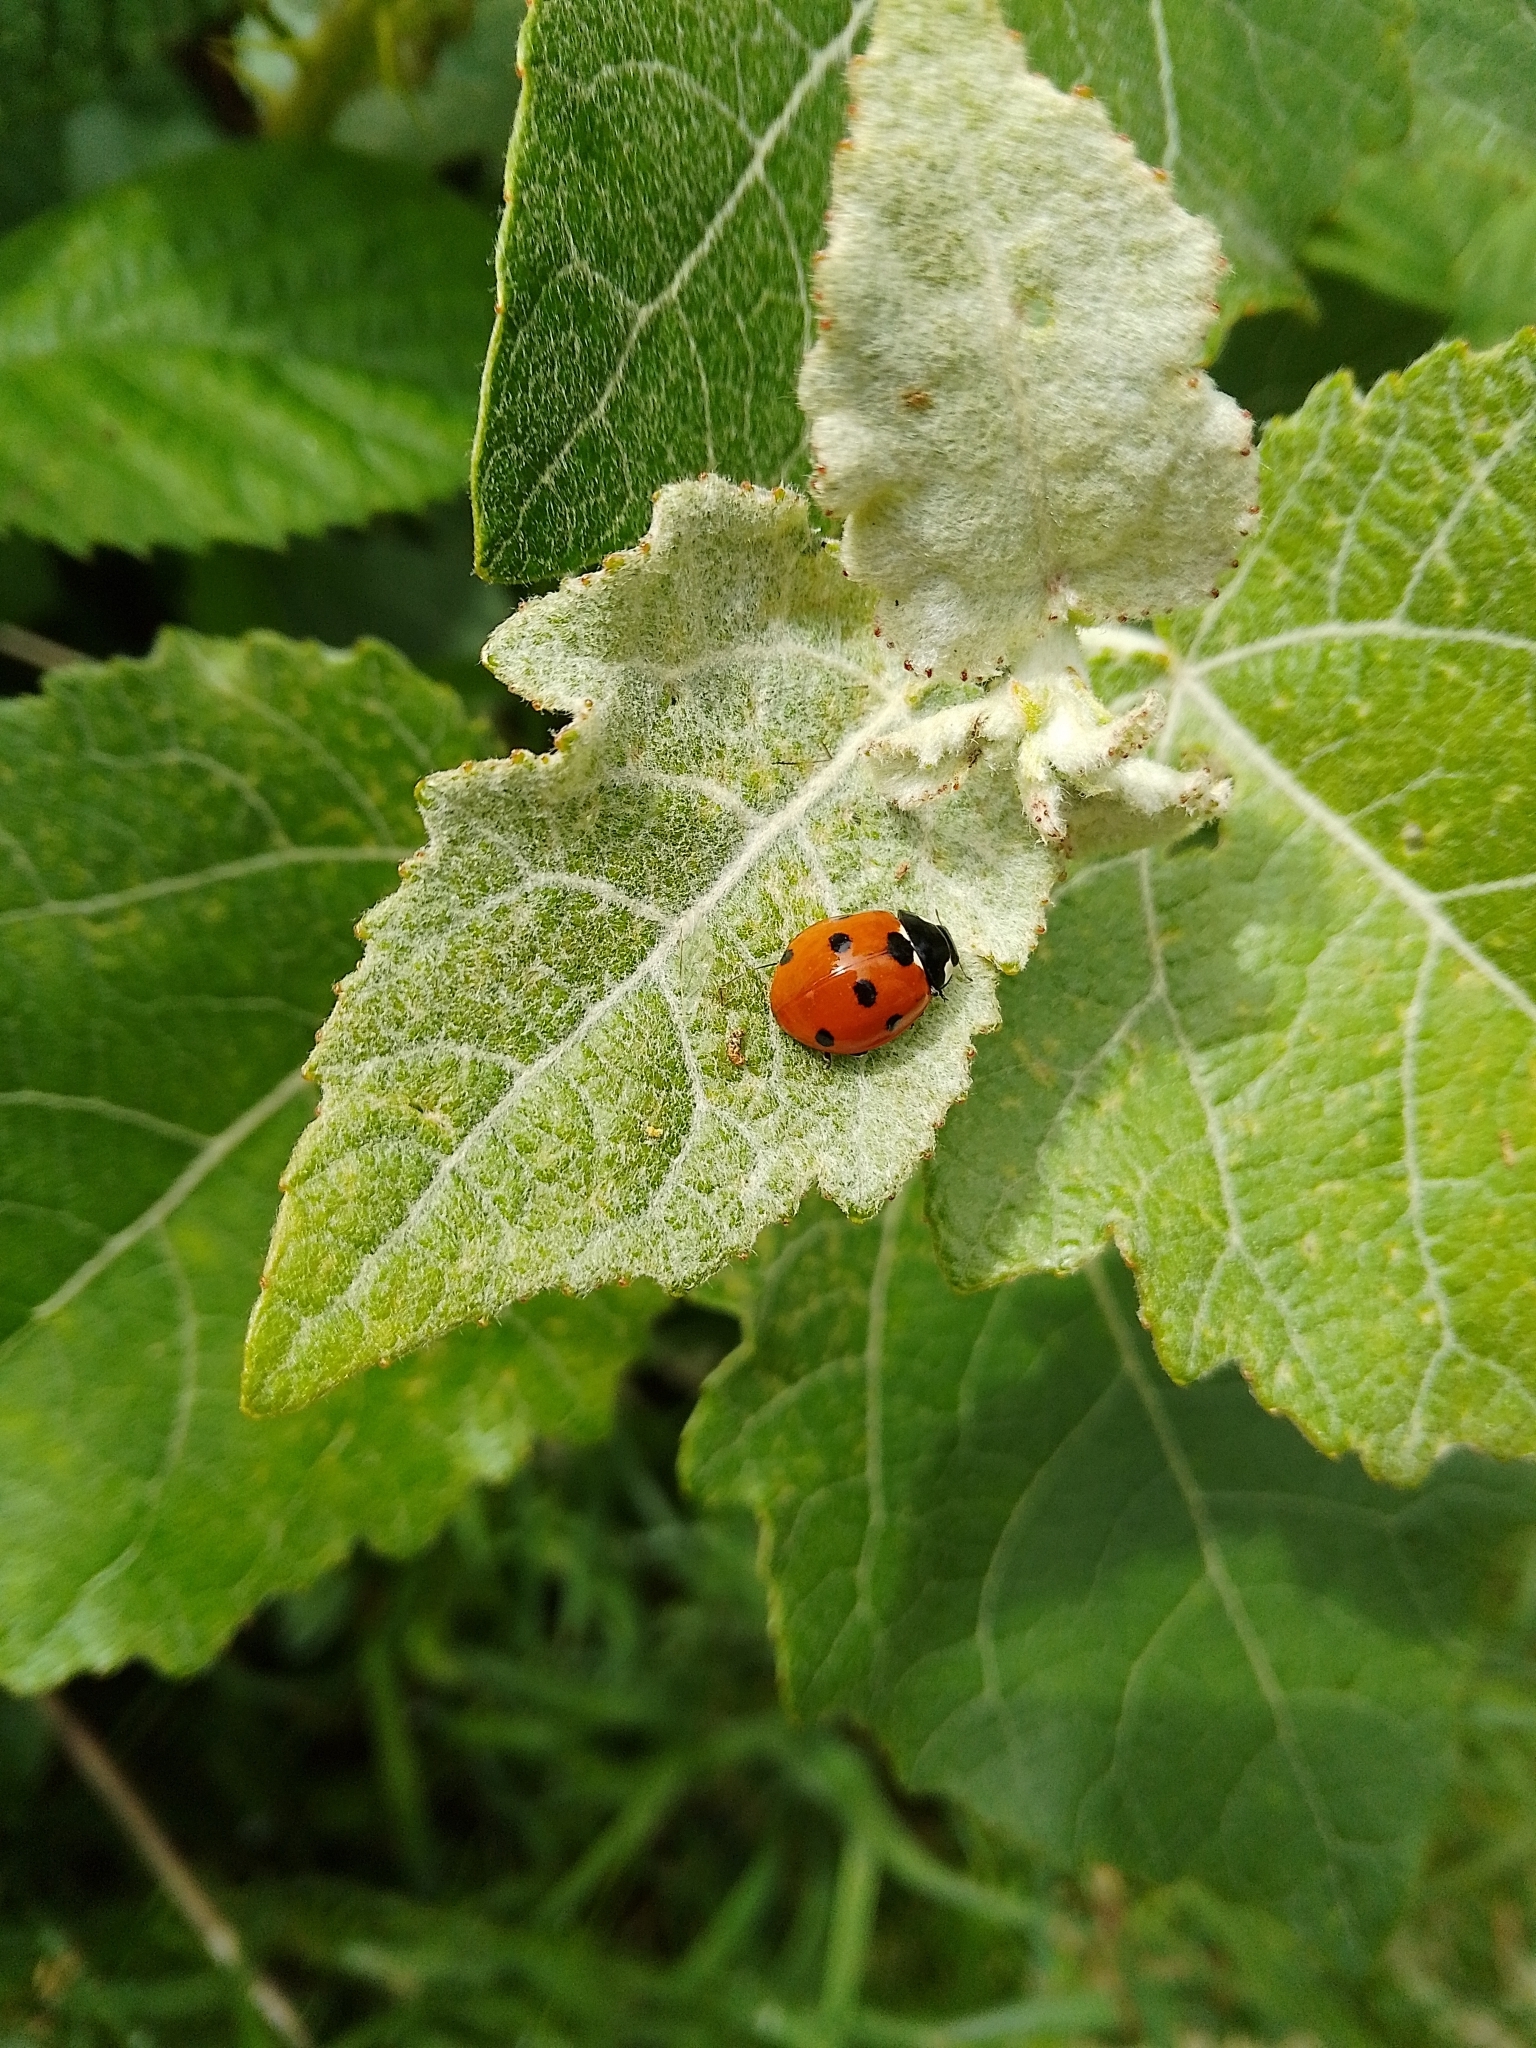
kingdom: Animalia
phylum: Arthropoda
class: Insecta
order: Coleoptera
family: Coccinellidae
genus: Coccinella
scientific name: Coccinella septempunctata
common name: Sevenspotted lady beetle
